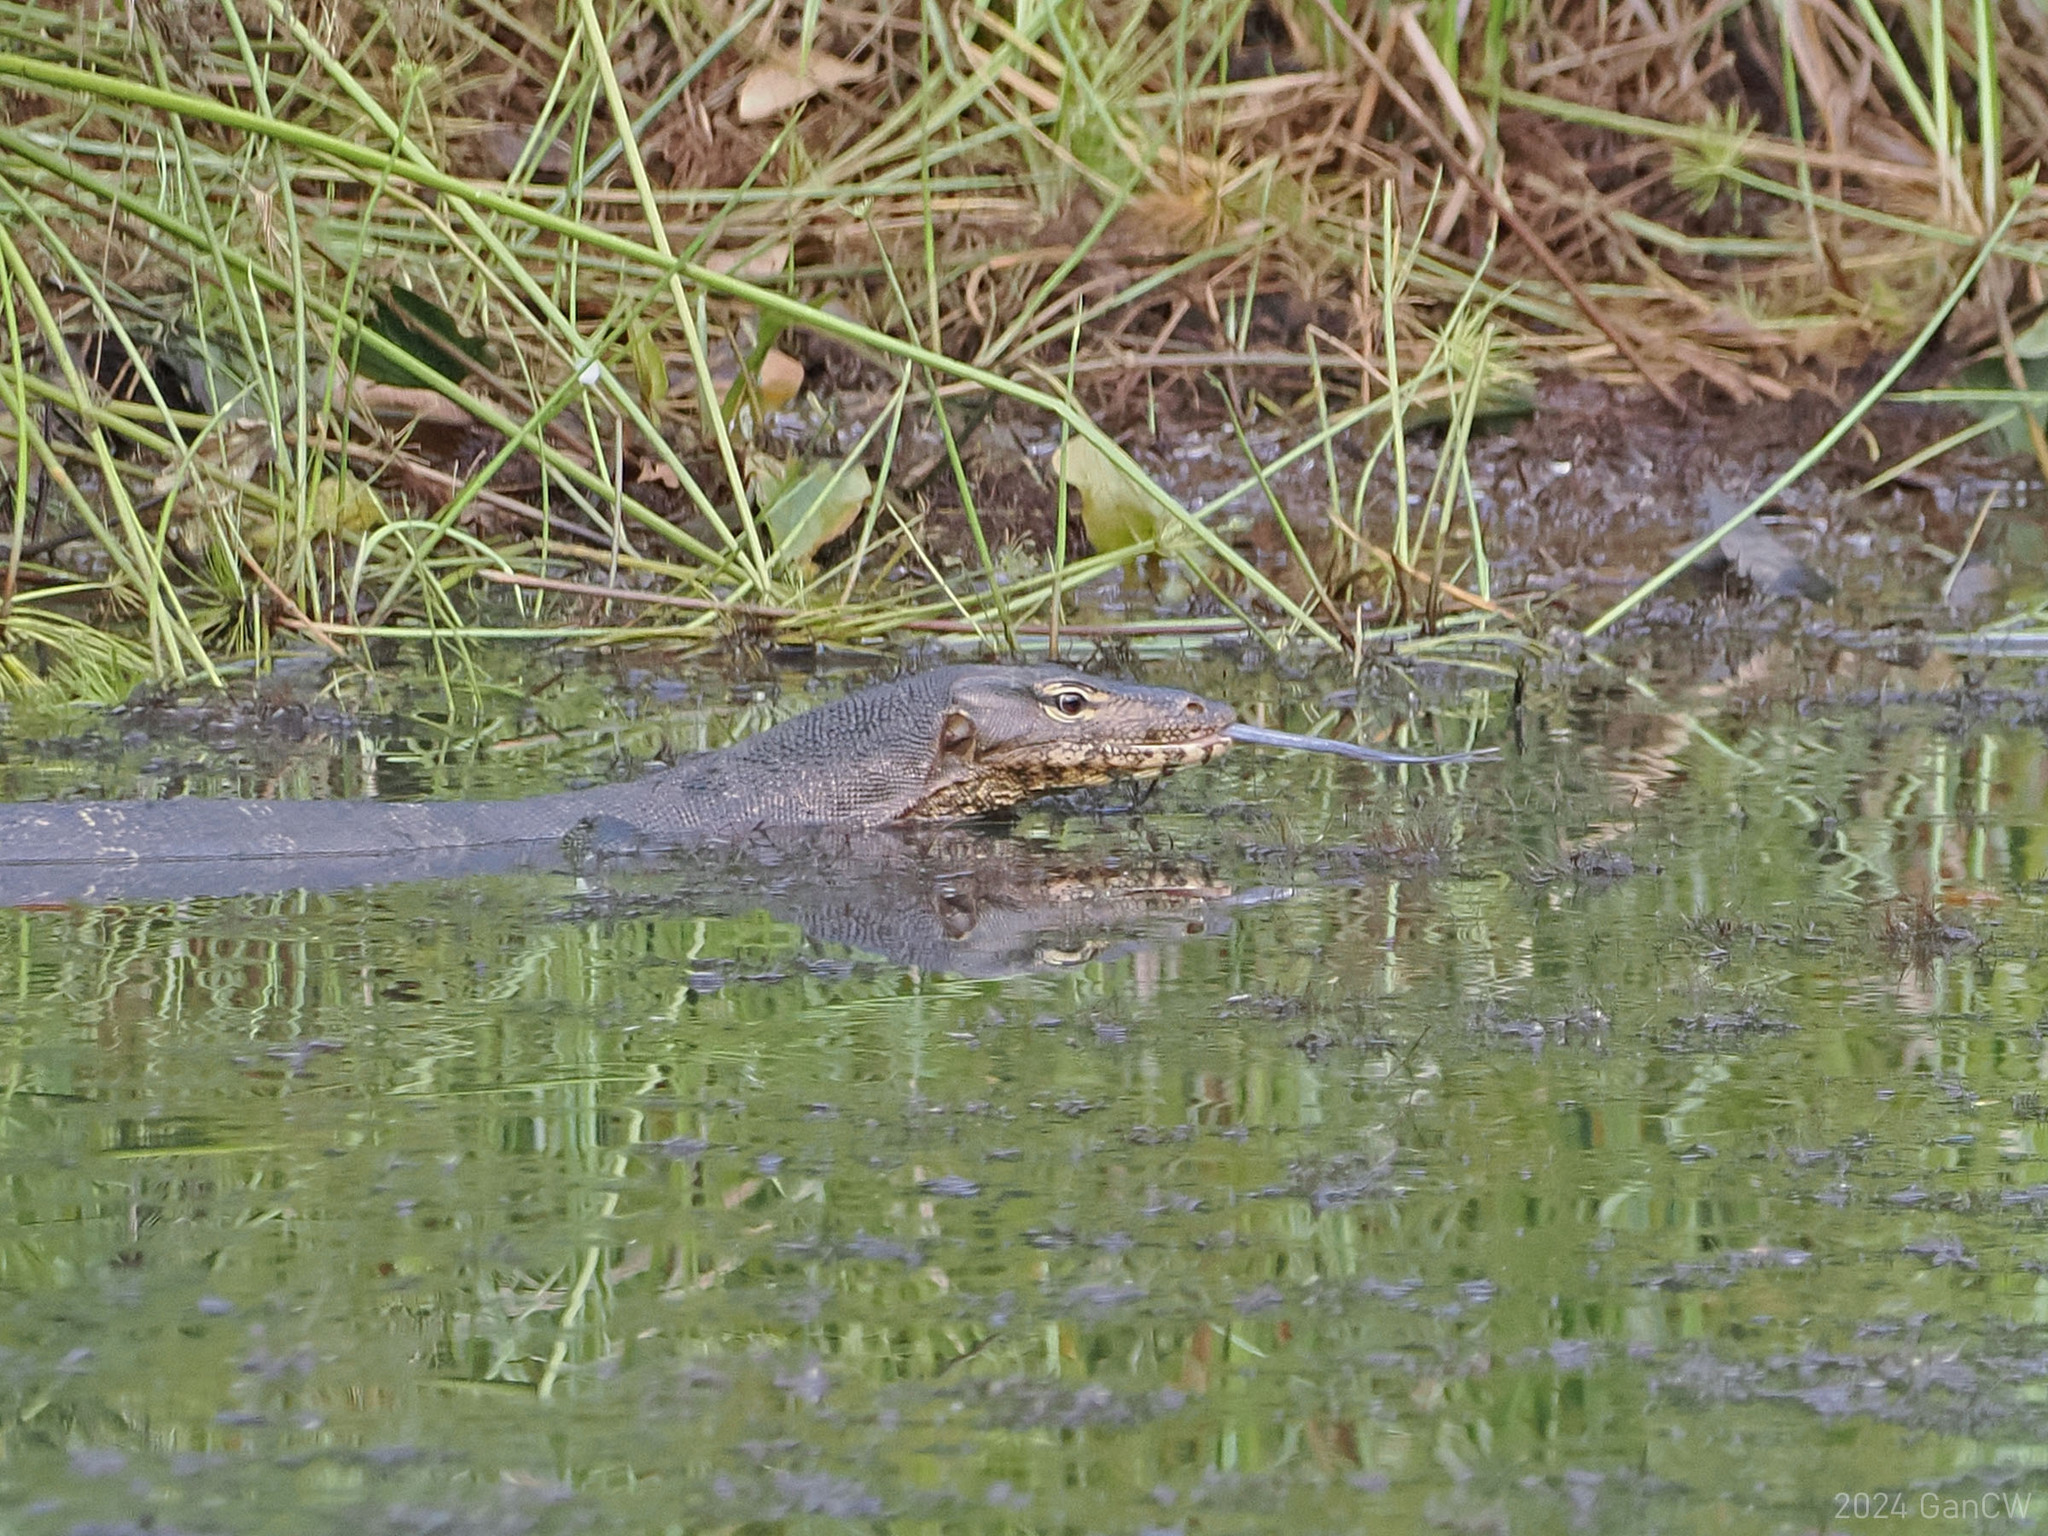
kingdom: Animalia
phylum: Chordata
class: Squamata
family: Varanidae
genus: Varanus
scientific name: Varanus salvator
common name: Common water monitor
